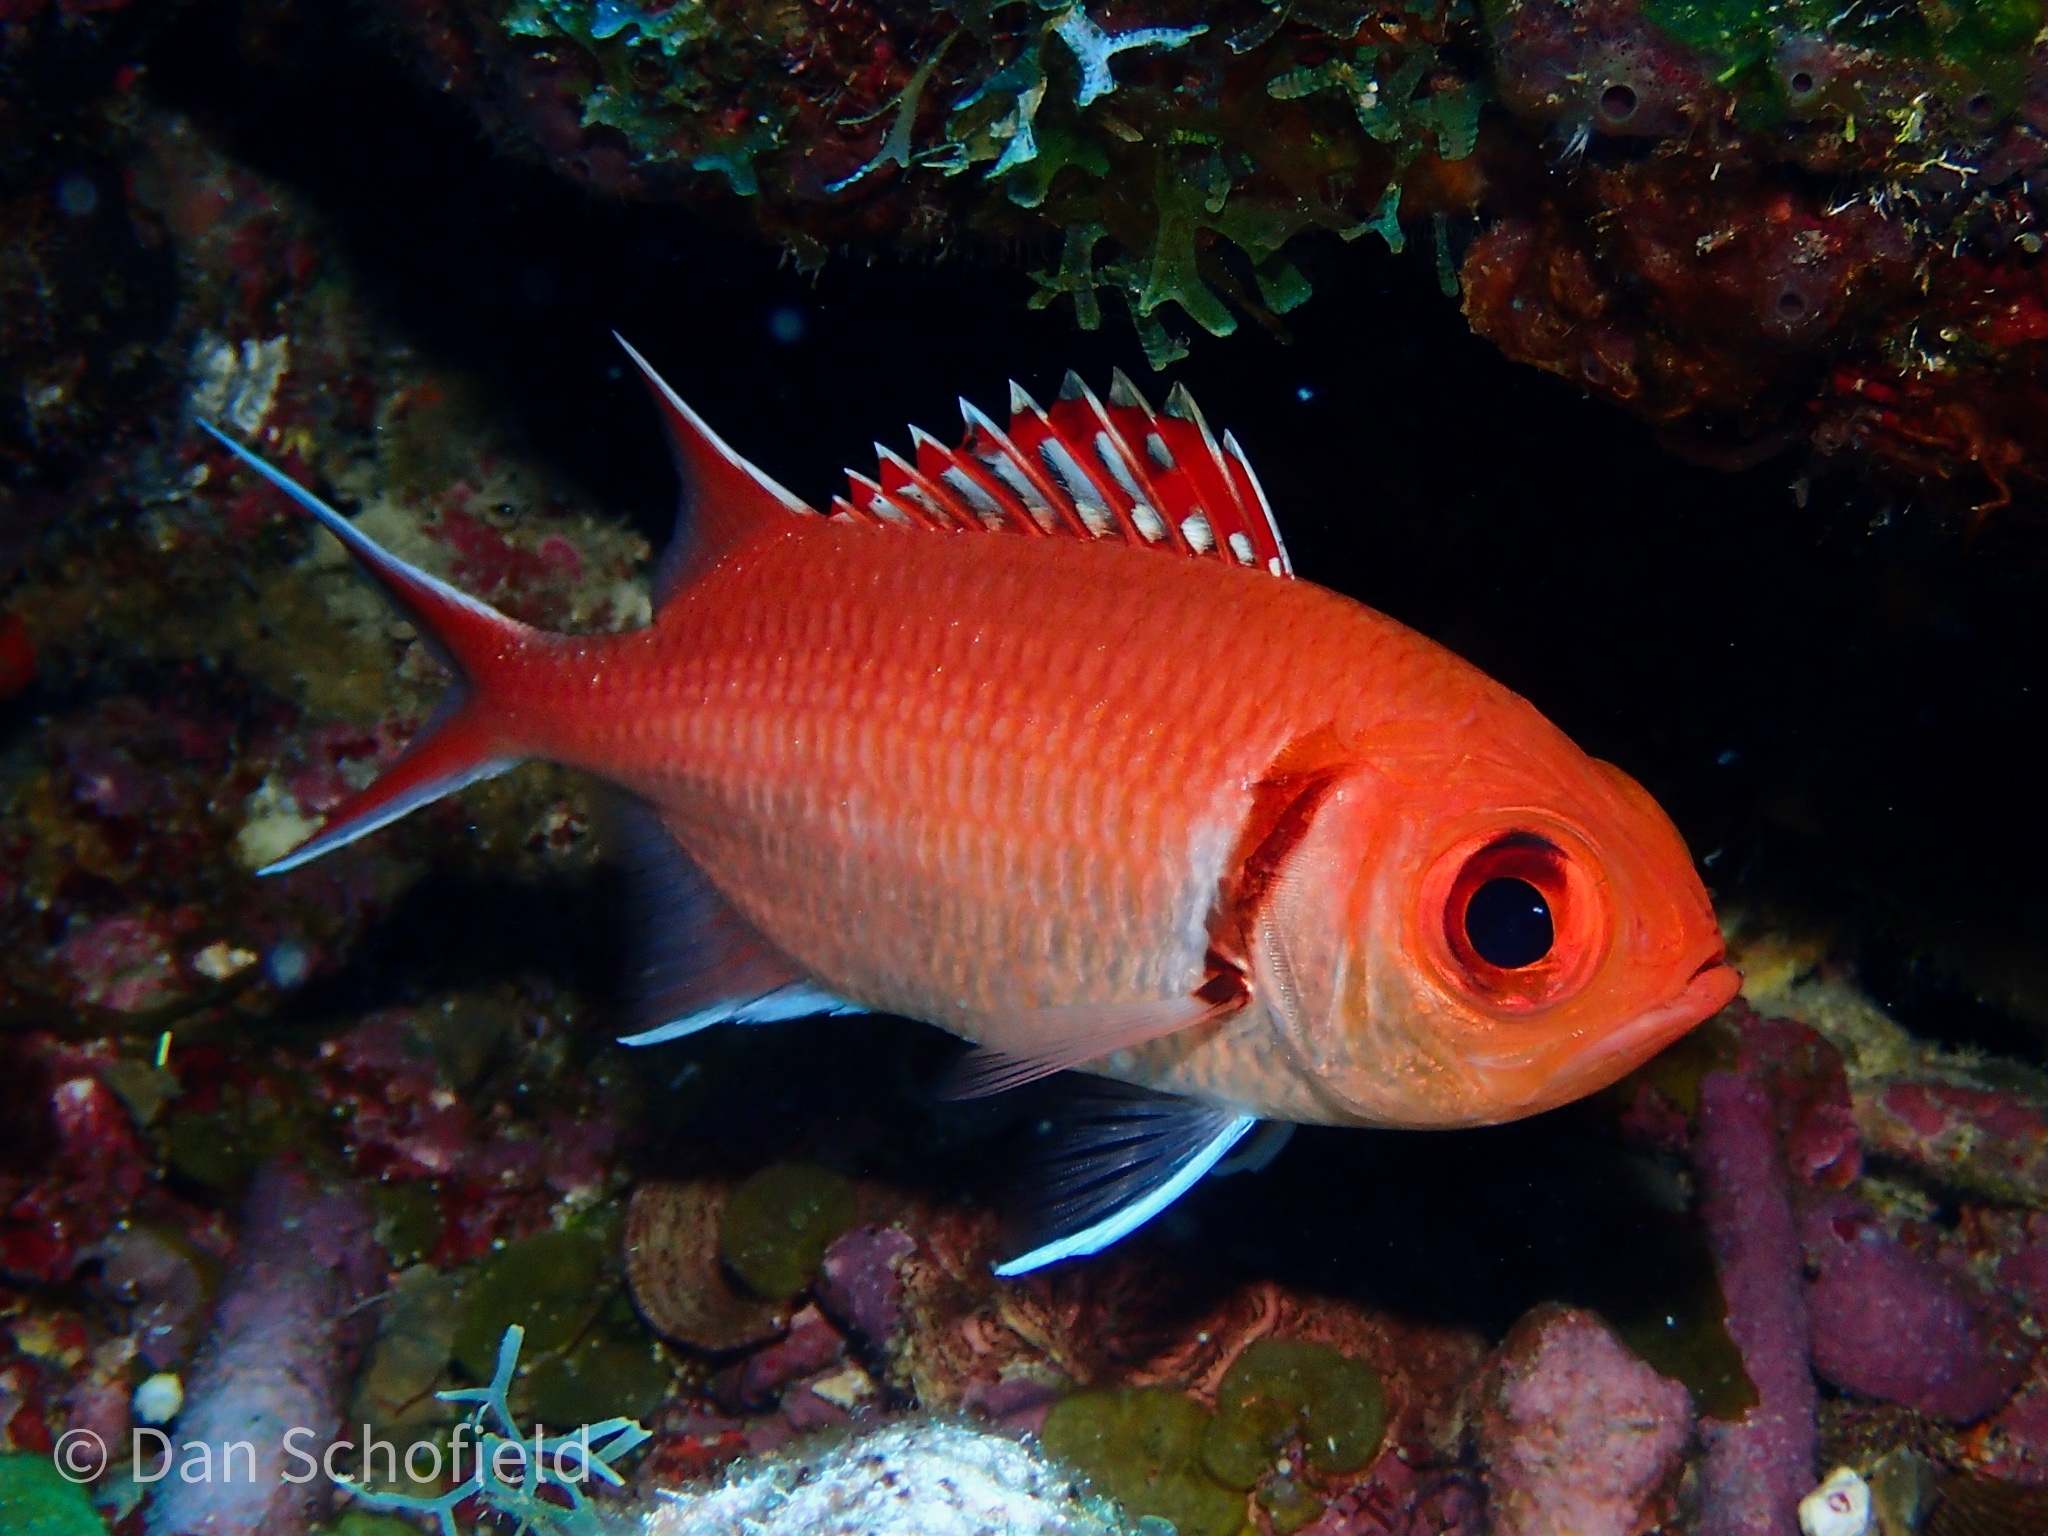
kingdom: Animalia
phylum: Chordata
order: Beryciformes
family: Holocentridae
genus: Myripristis
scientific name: Myripristis jacobus
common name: Blackbar soldierfish
